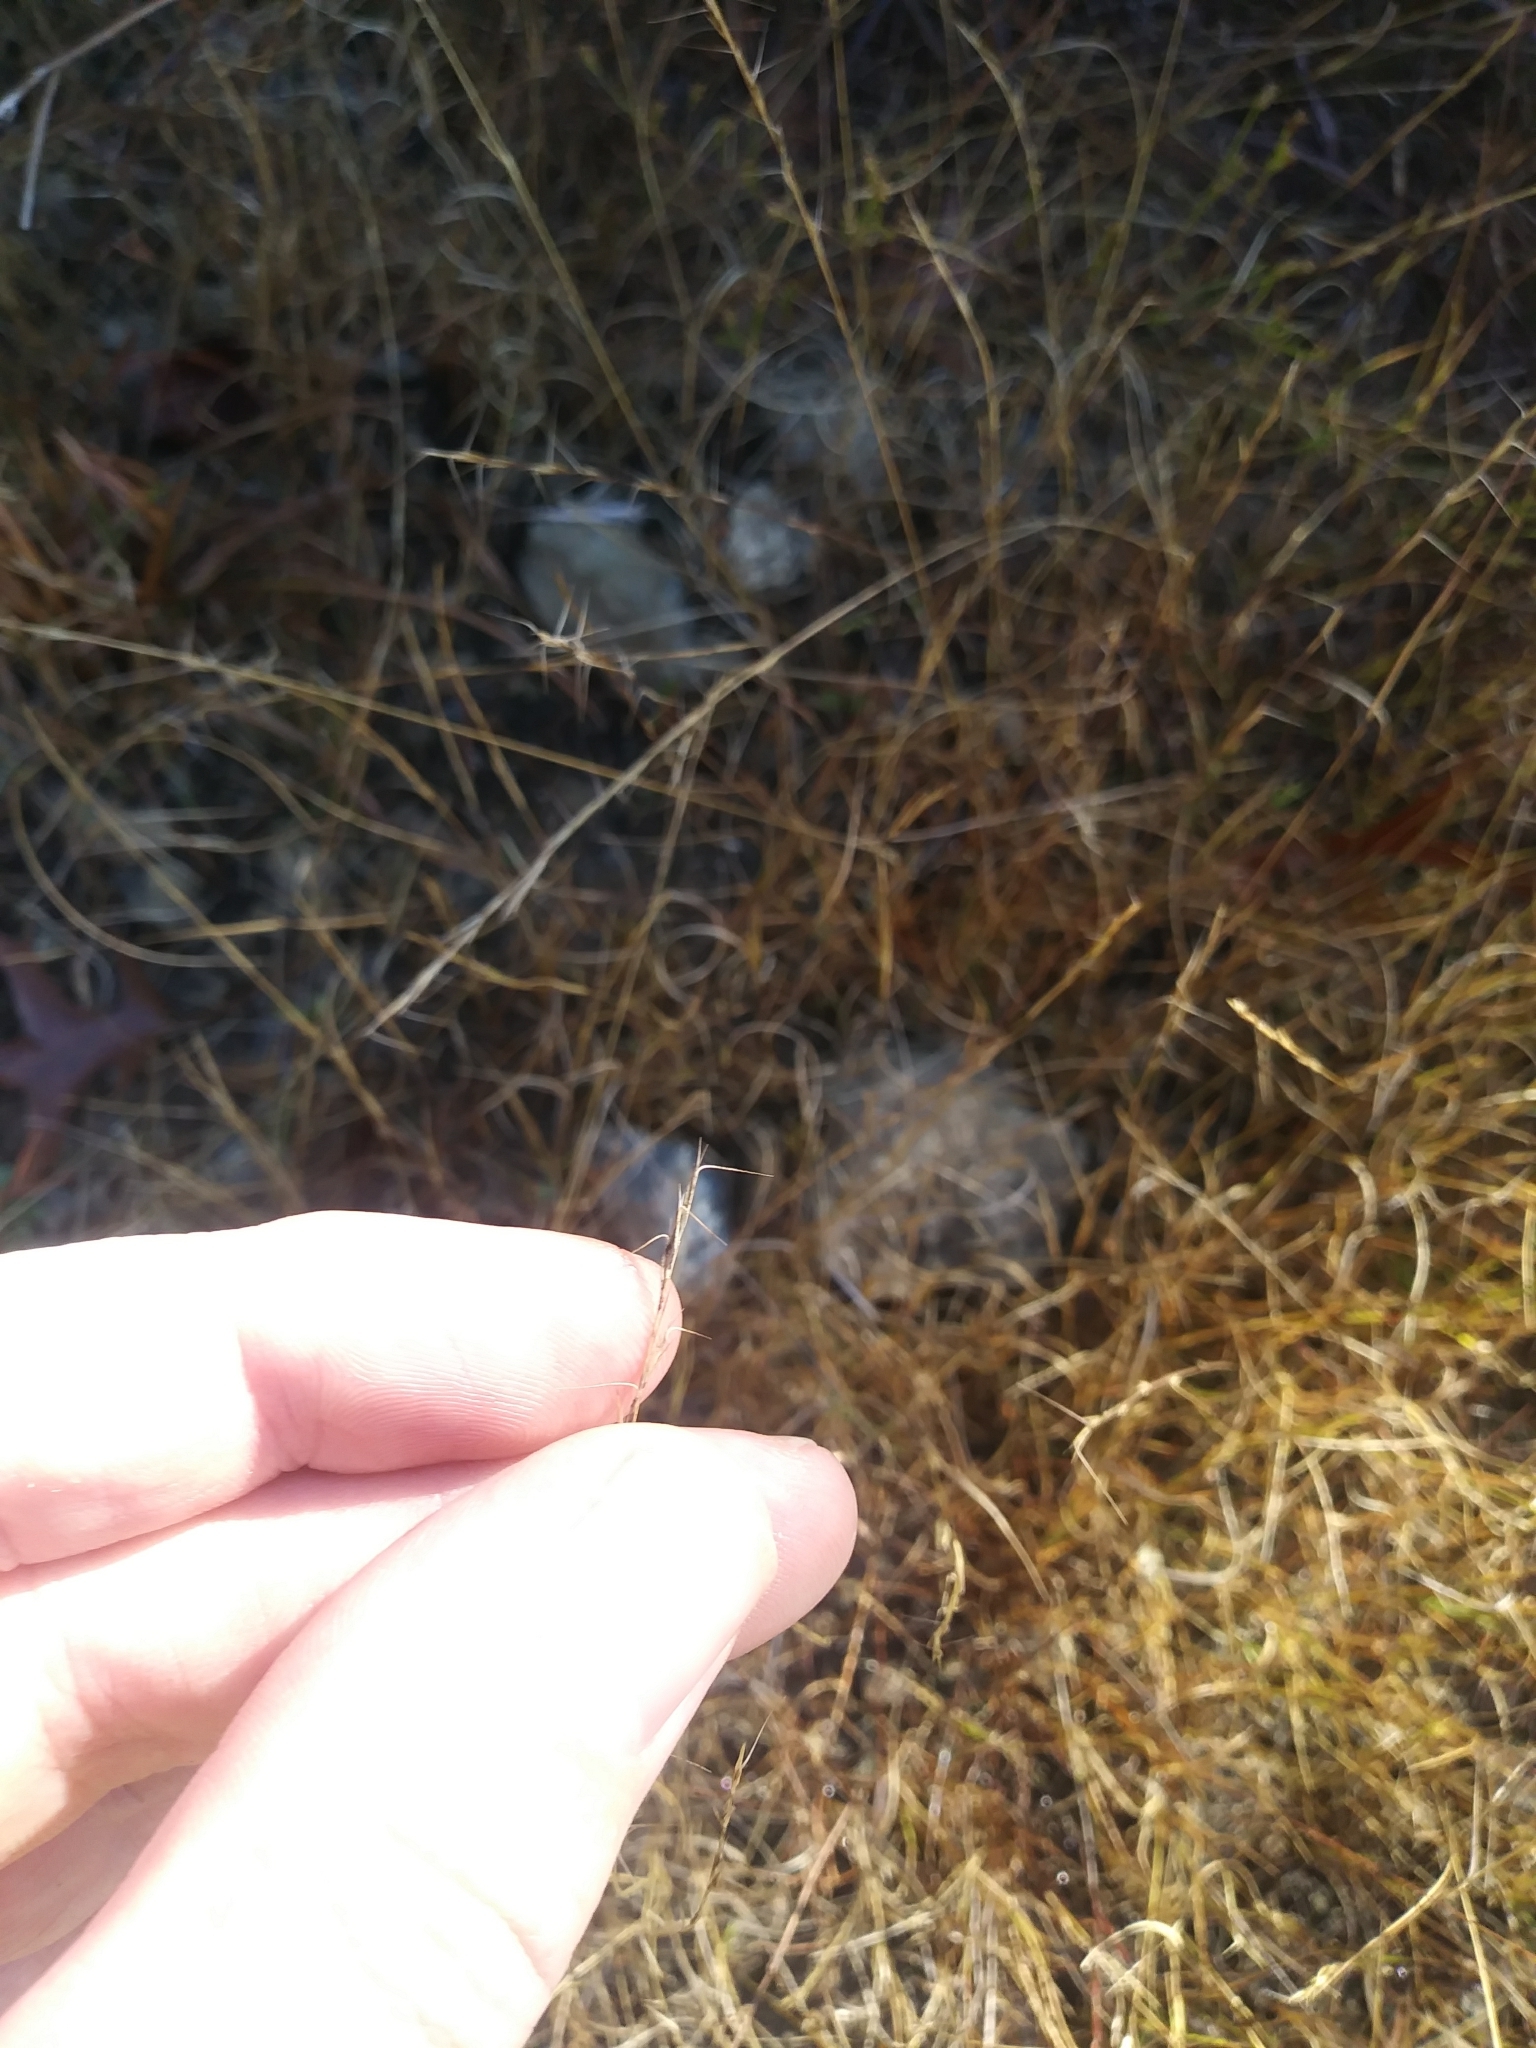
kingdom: Plantae
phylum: Tracheophyta
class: Liliopsida
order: Poales
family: Poaceae
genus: Aristida
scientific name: Aristida longespica
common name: Long-spiked triple-awned grass
